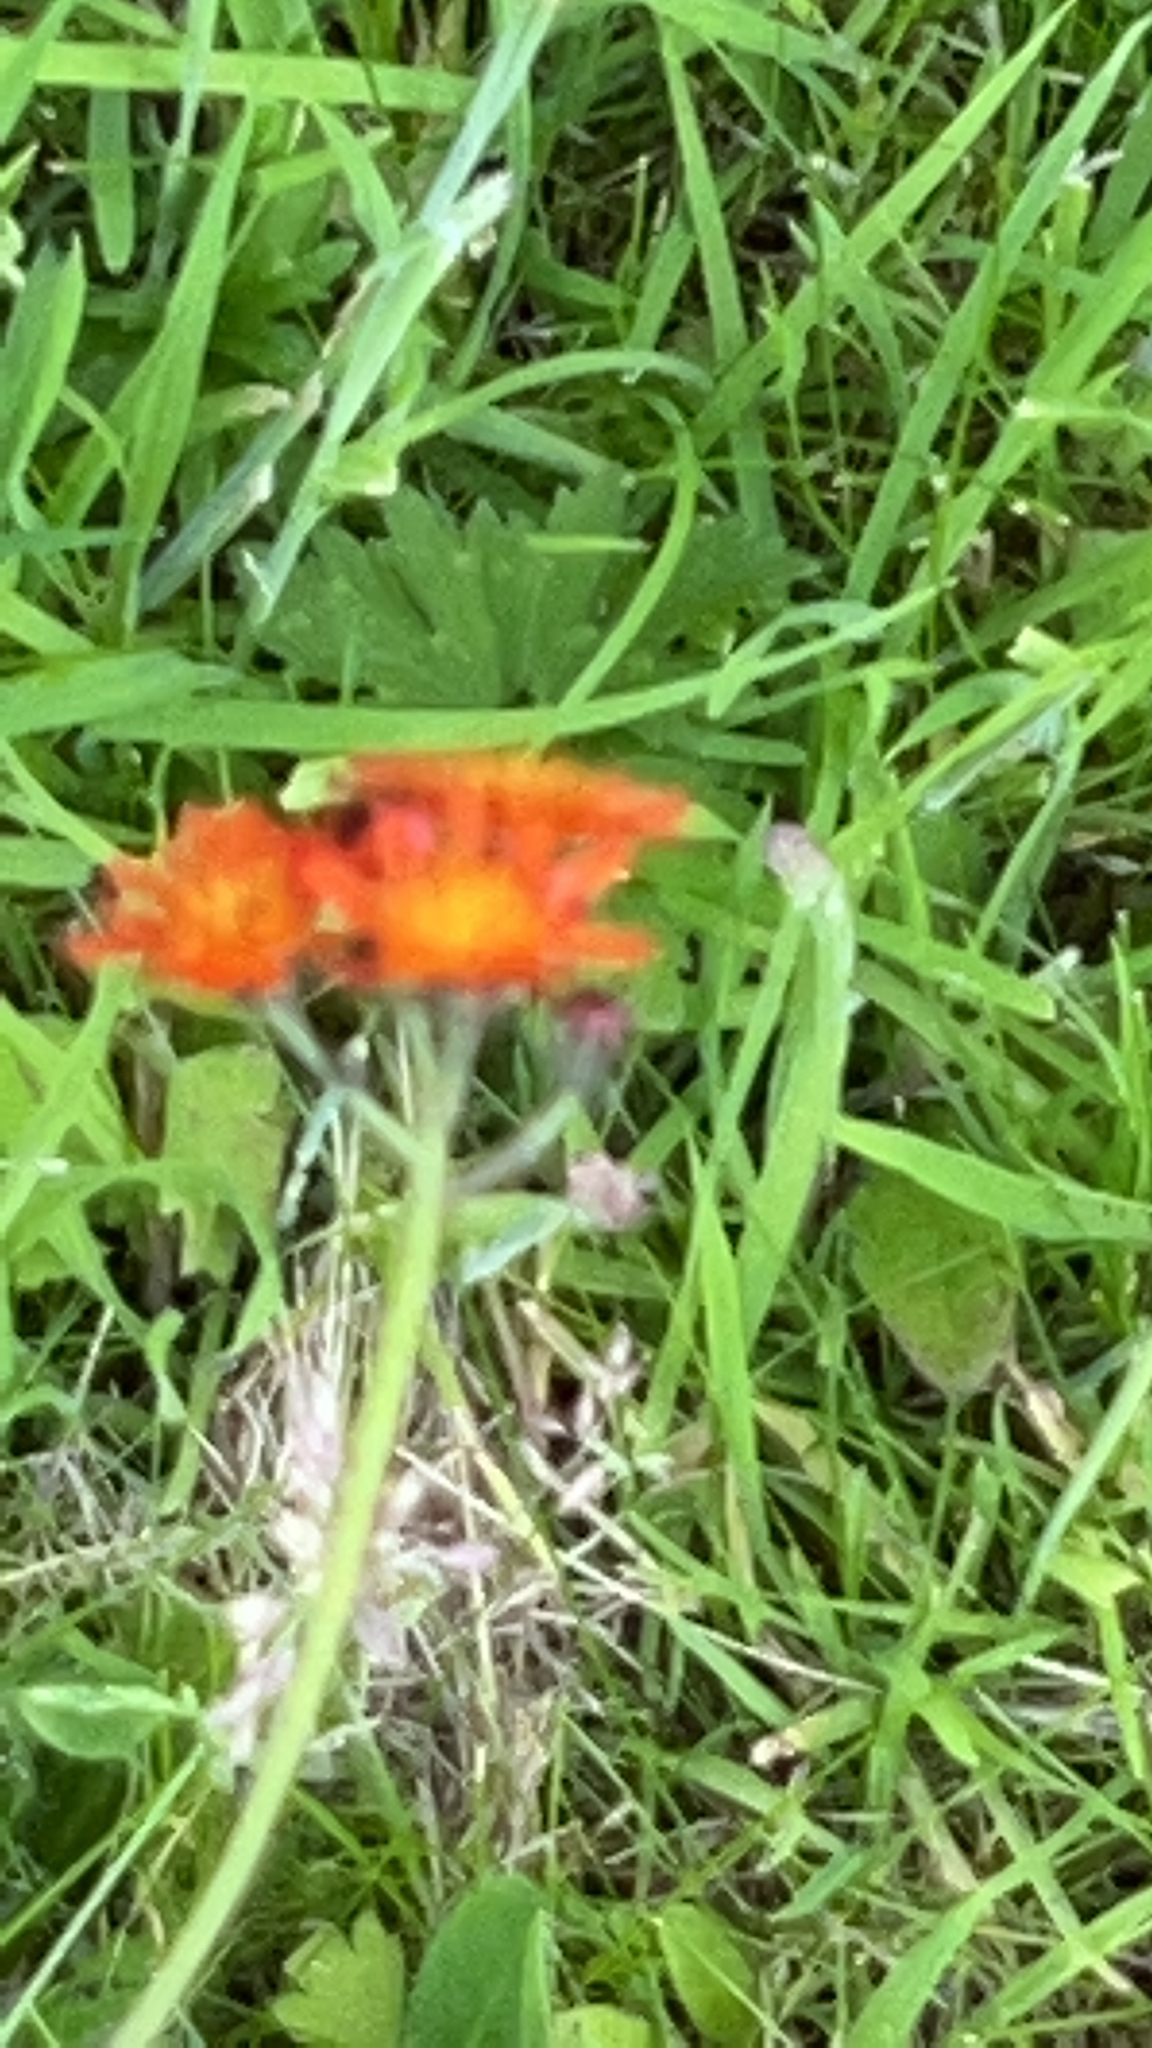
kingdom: Plantae
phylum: Tracheophyta
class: Magnoliopsida
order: Asterales
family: Asteraceae
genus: Pilosella
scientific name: Pilosella aurantiaca
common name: Fox-and-cubs
